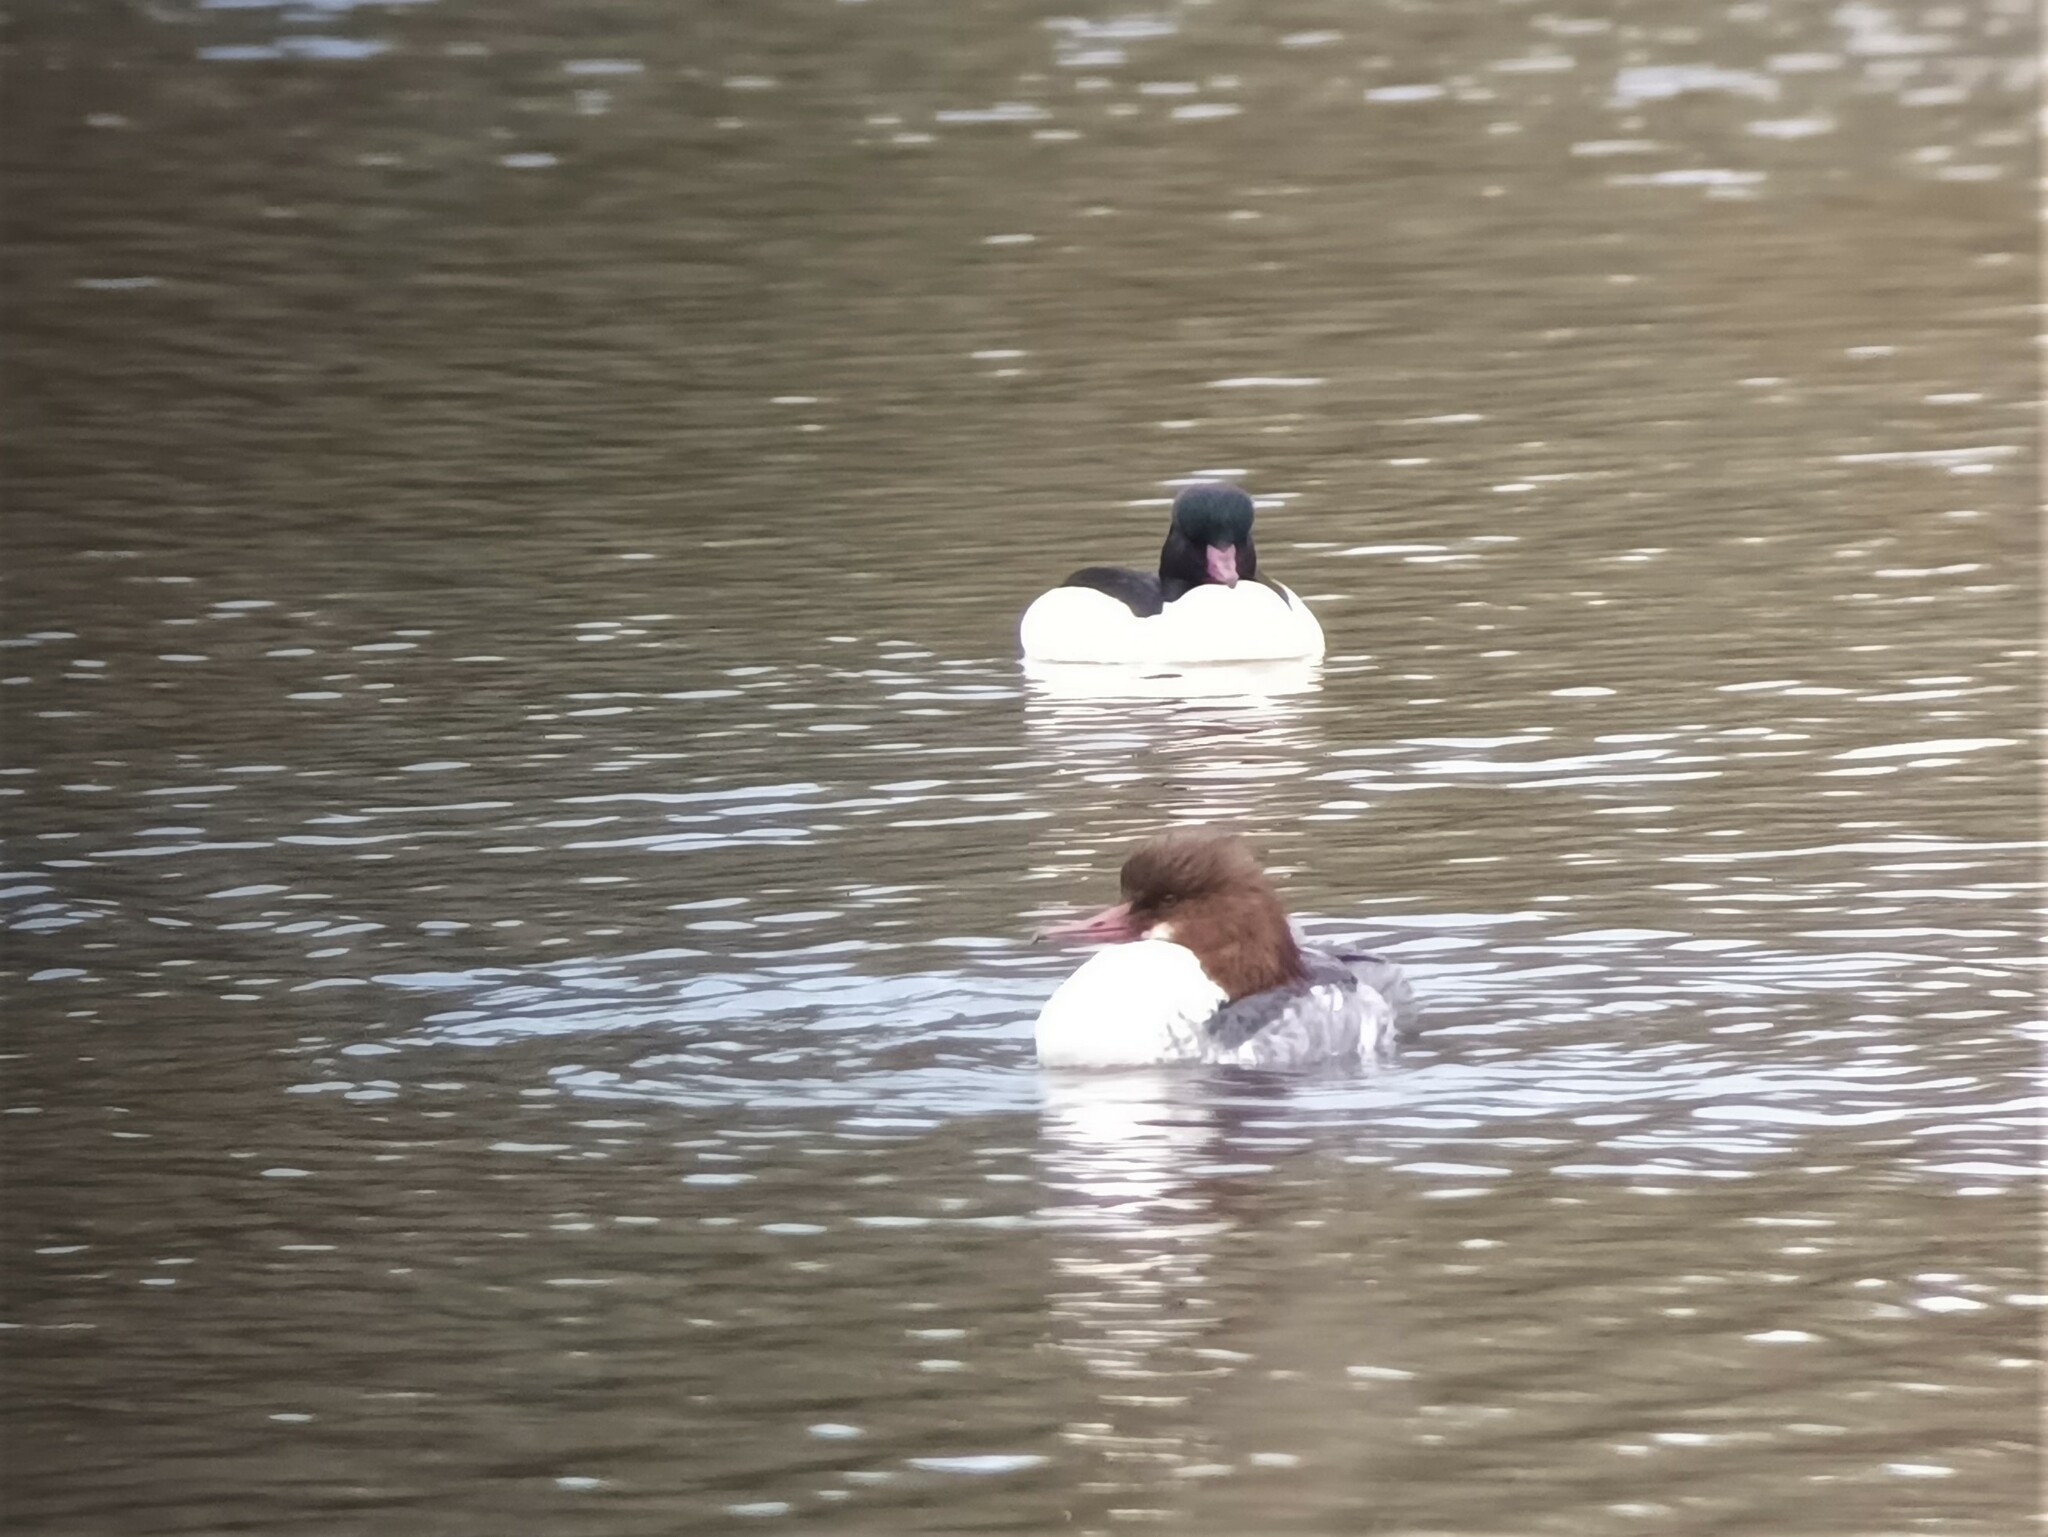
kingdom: Animalia
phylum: Chordata
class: Aves
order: Anseriformes
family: Anatidae
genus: Mergus
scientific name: Mergus merganser
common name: Common merganser
